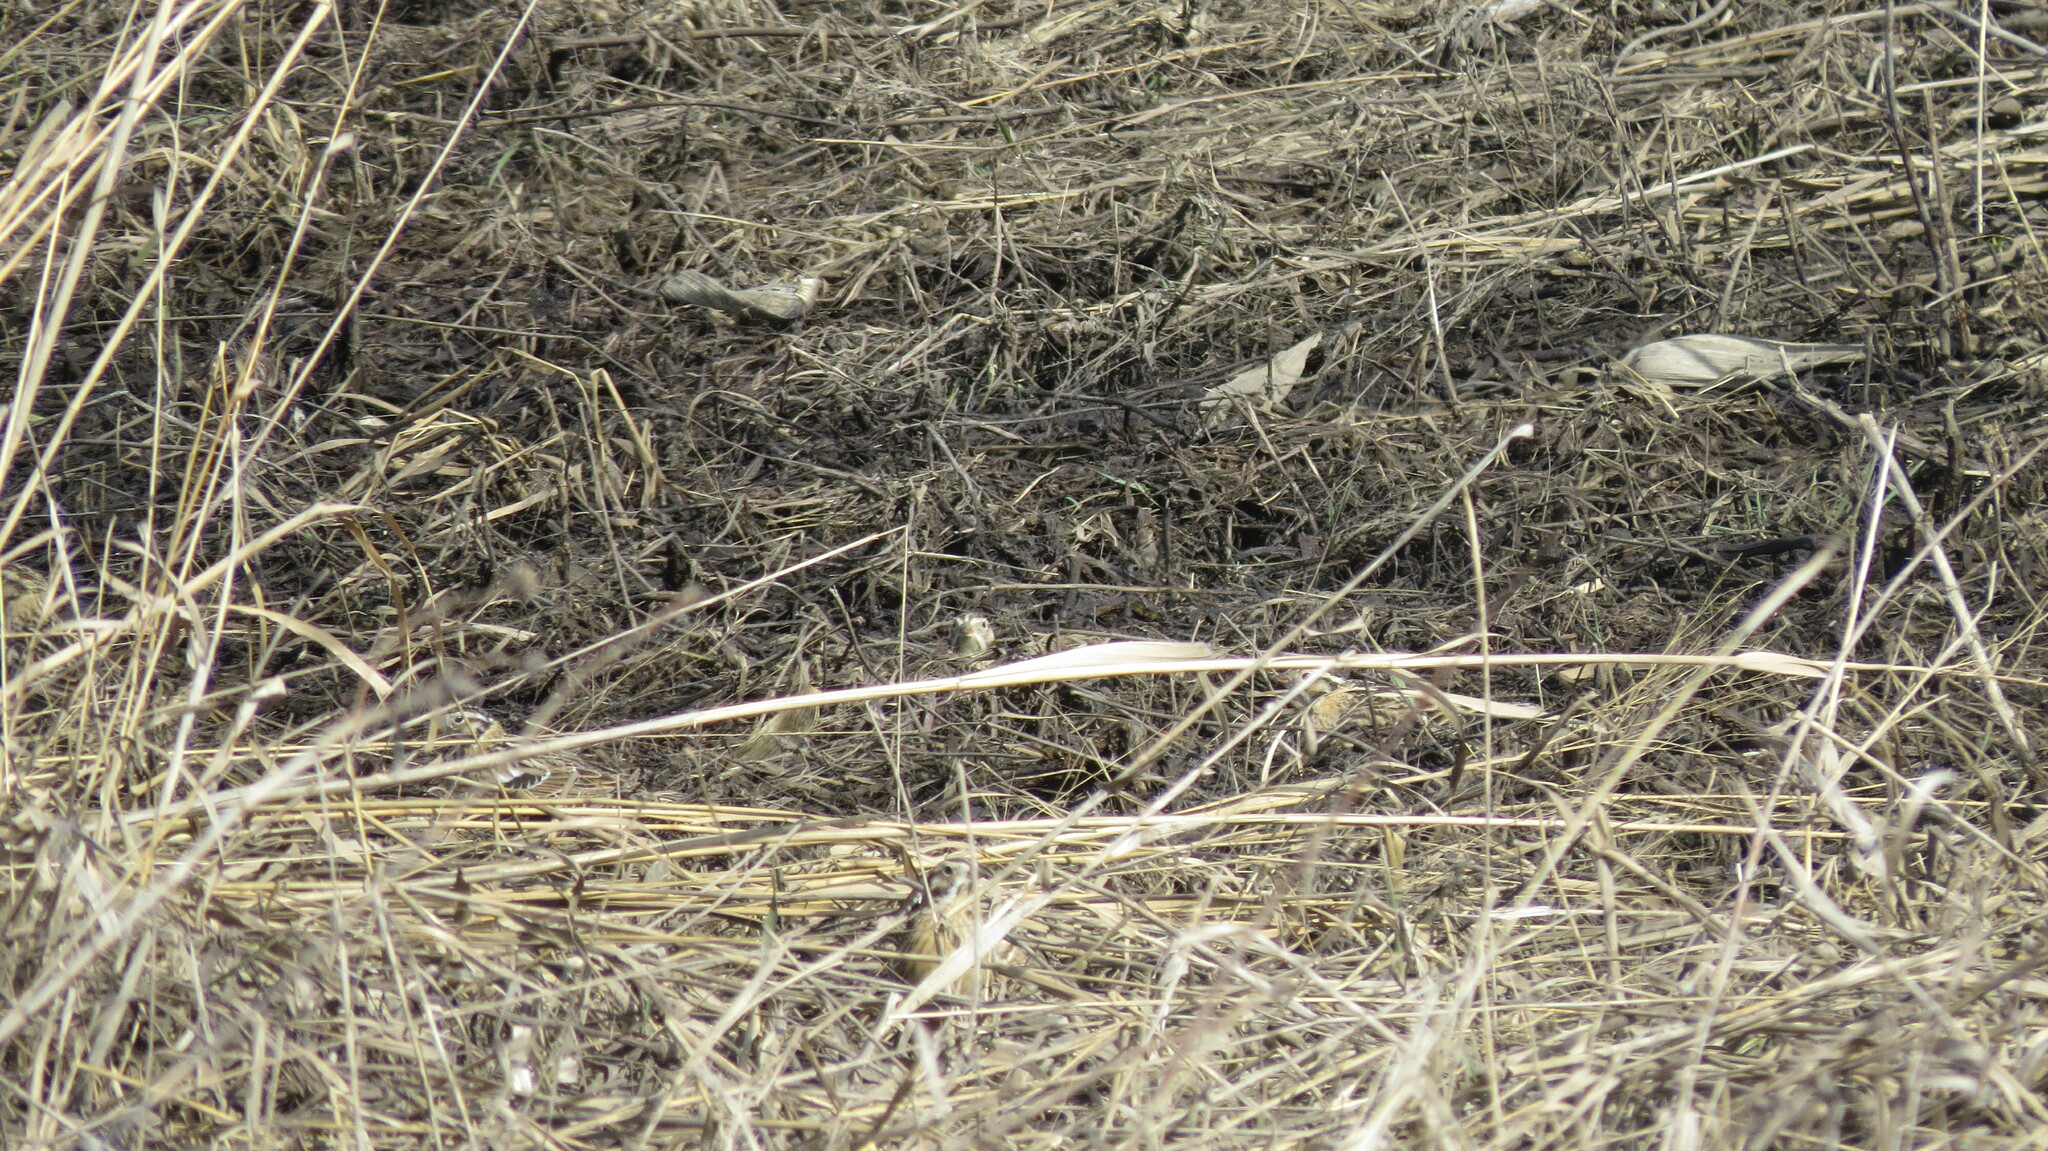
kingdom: Animalia
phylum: Chordata
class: Aves
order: Passeriformes
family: Calcariidae
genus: Calcarius
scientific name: Calcarius pictus
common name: Smith's longspur
